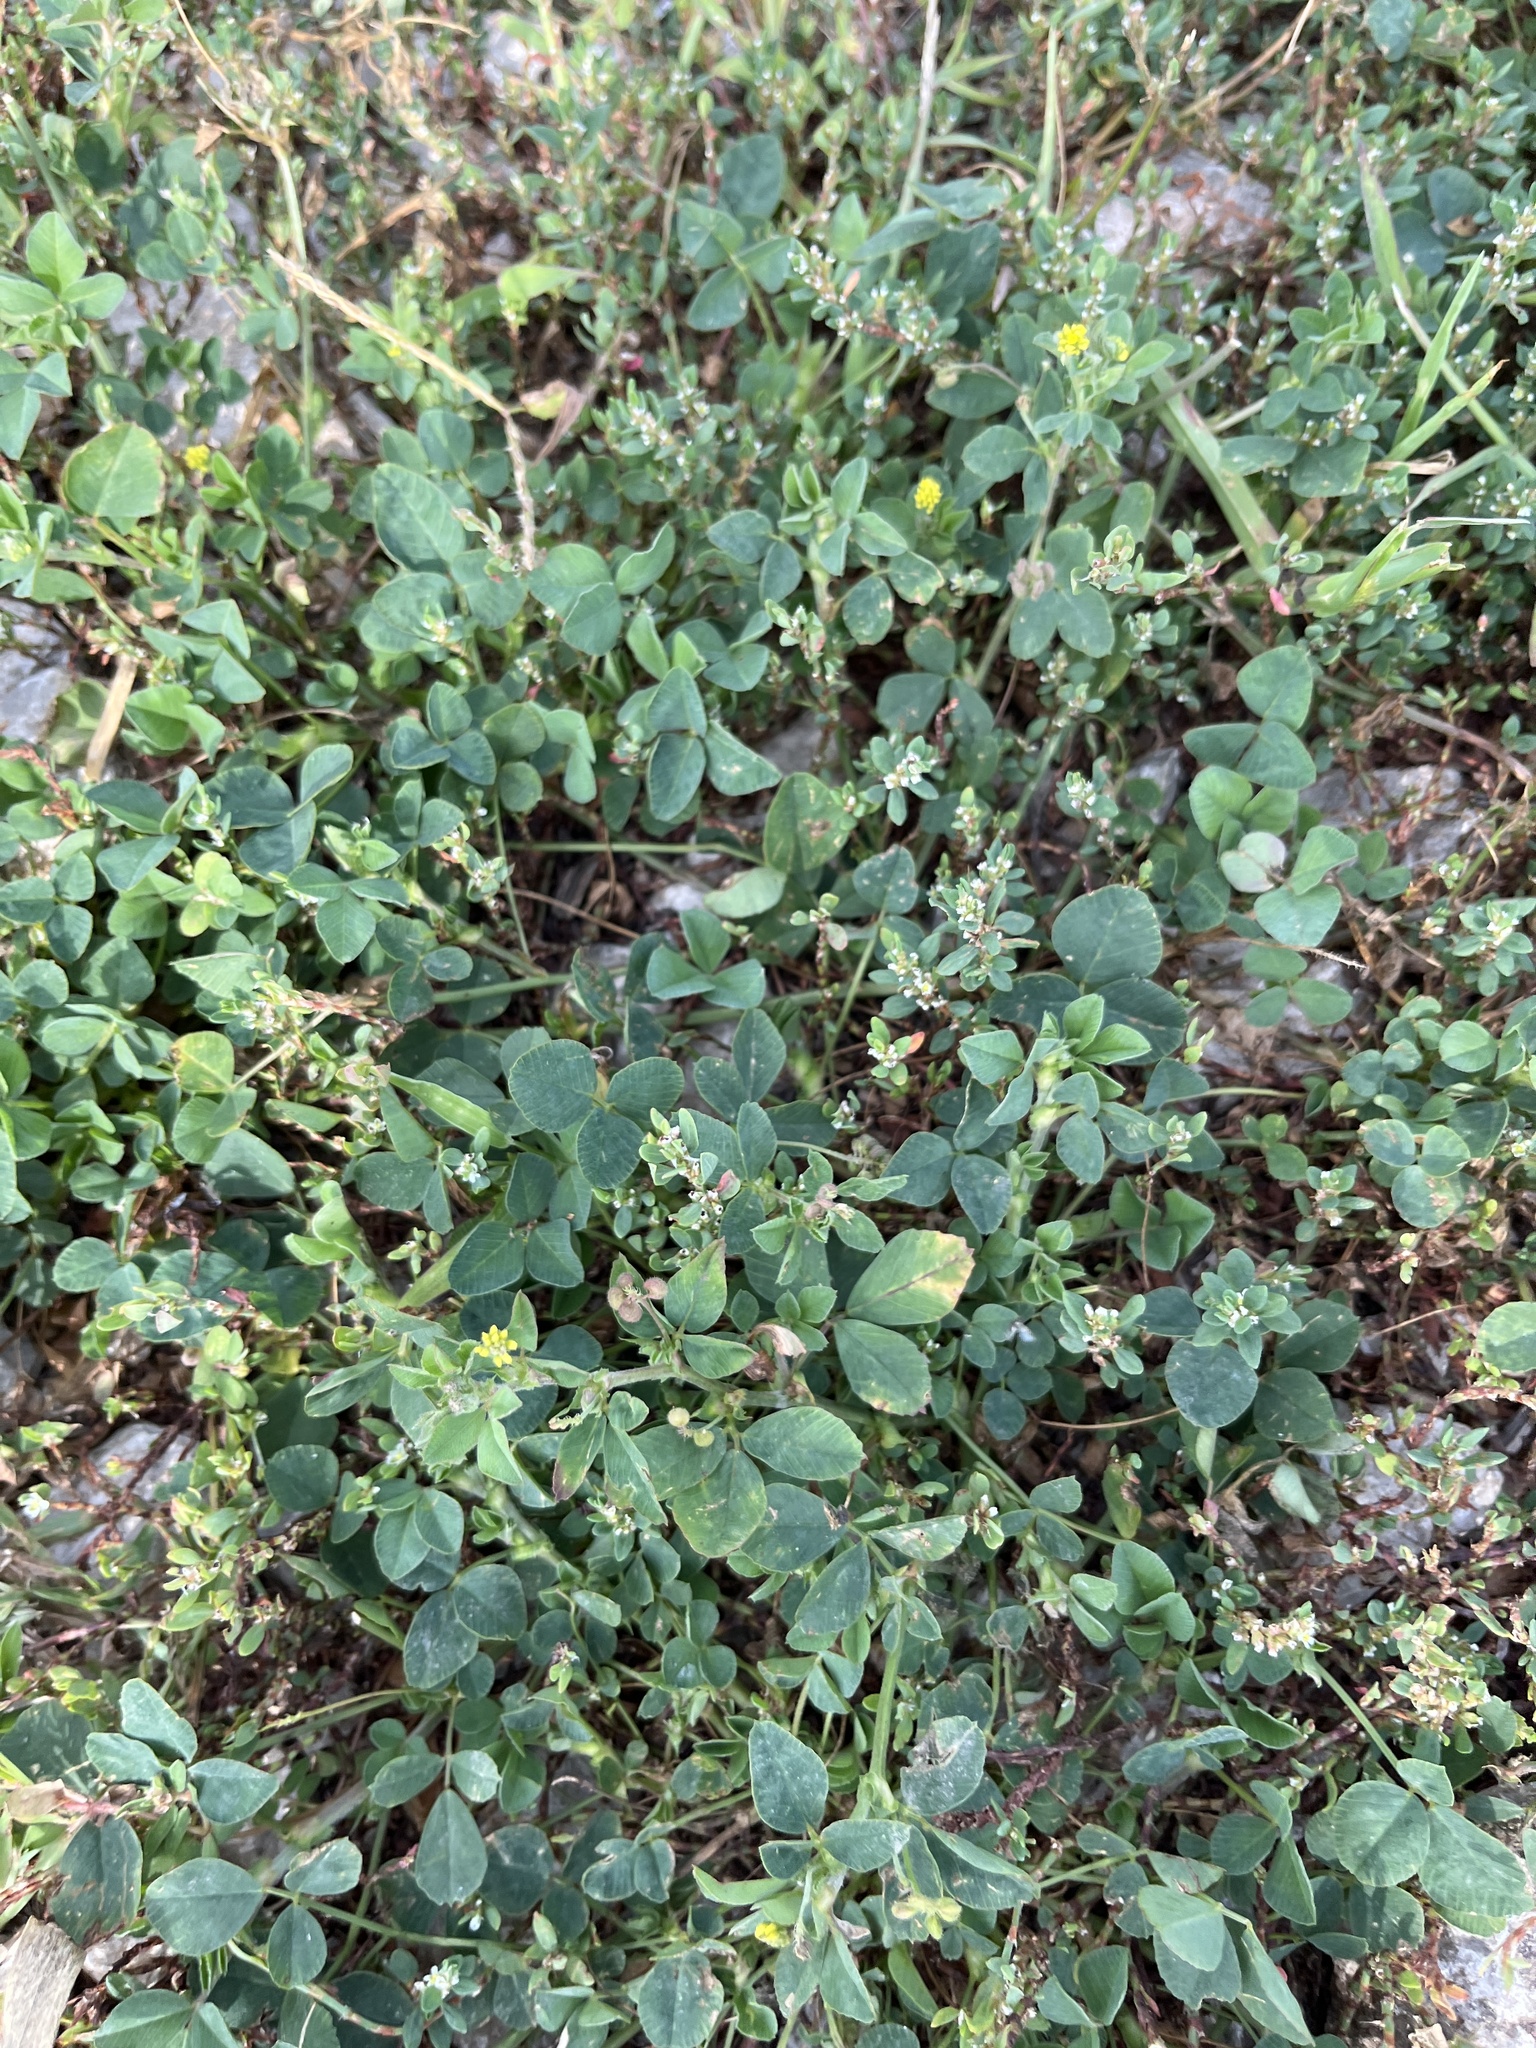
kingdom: Plantae
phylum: Tracheophyta
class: Magnoliopsida
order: Fabales
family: Fabaceae
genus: Medicago
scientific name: Medicago lupulina
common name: Black medick
